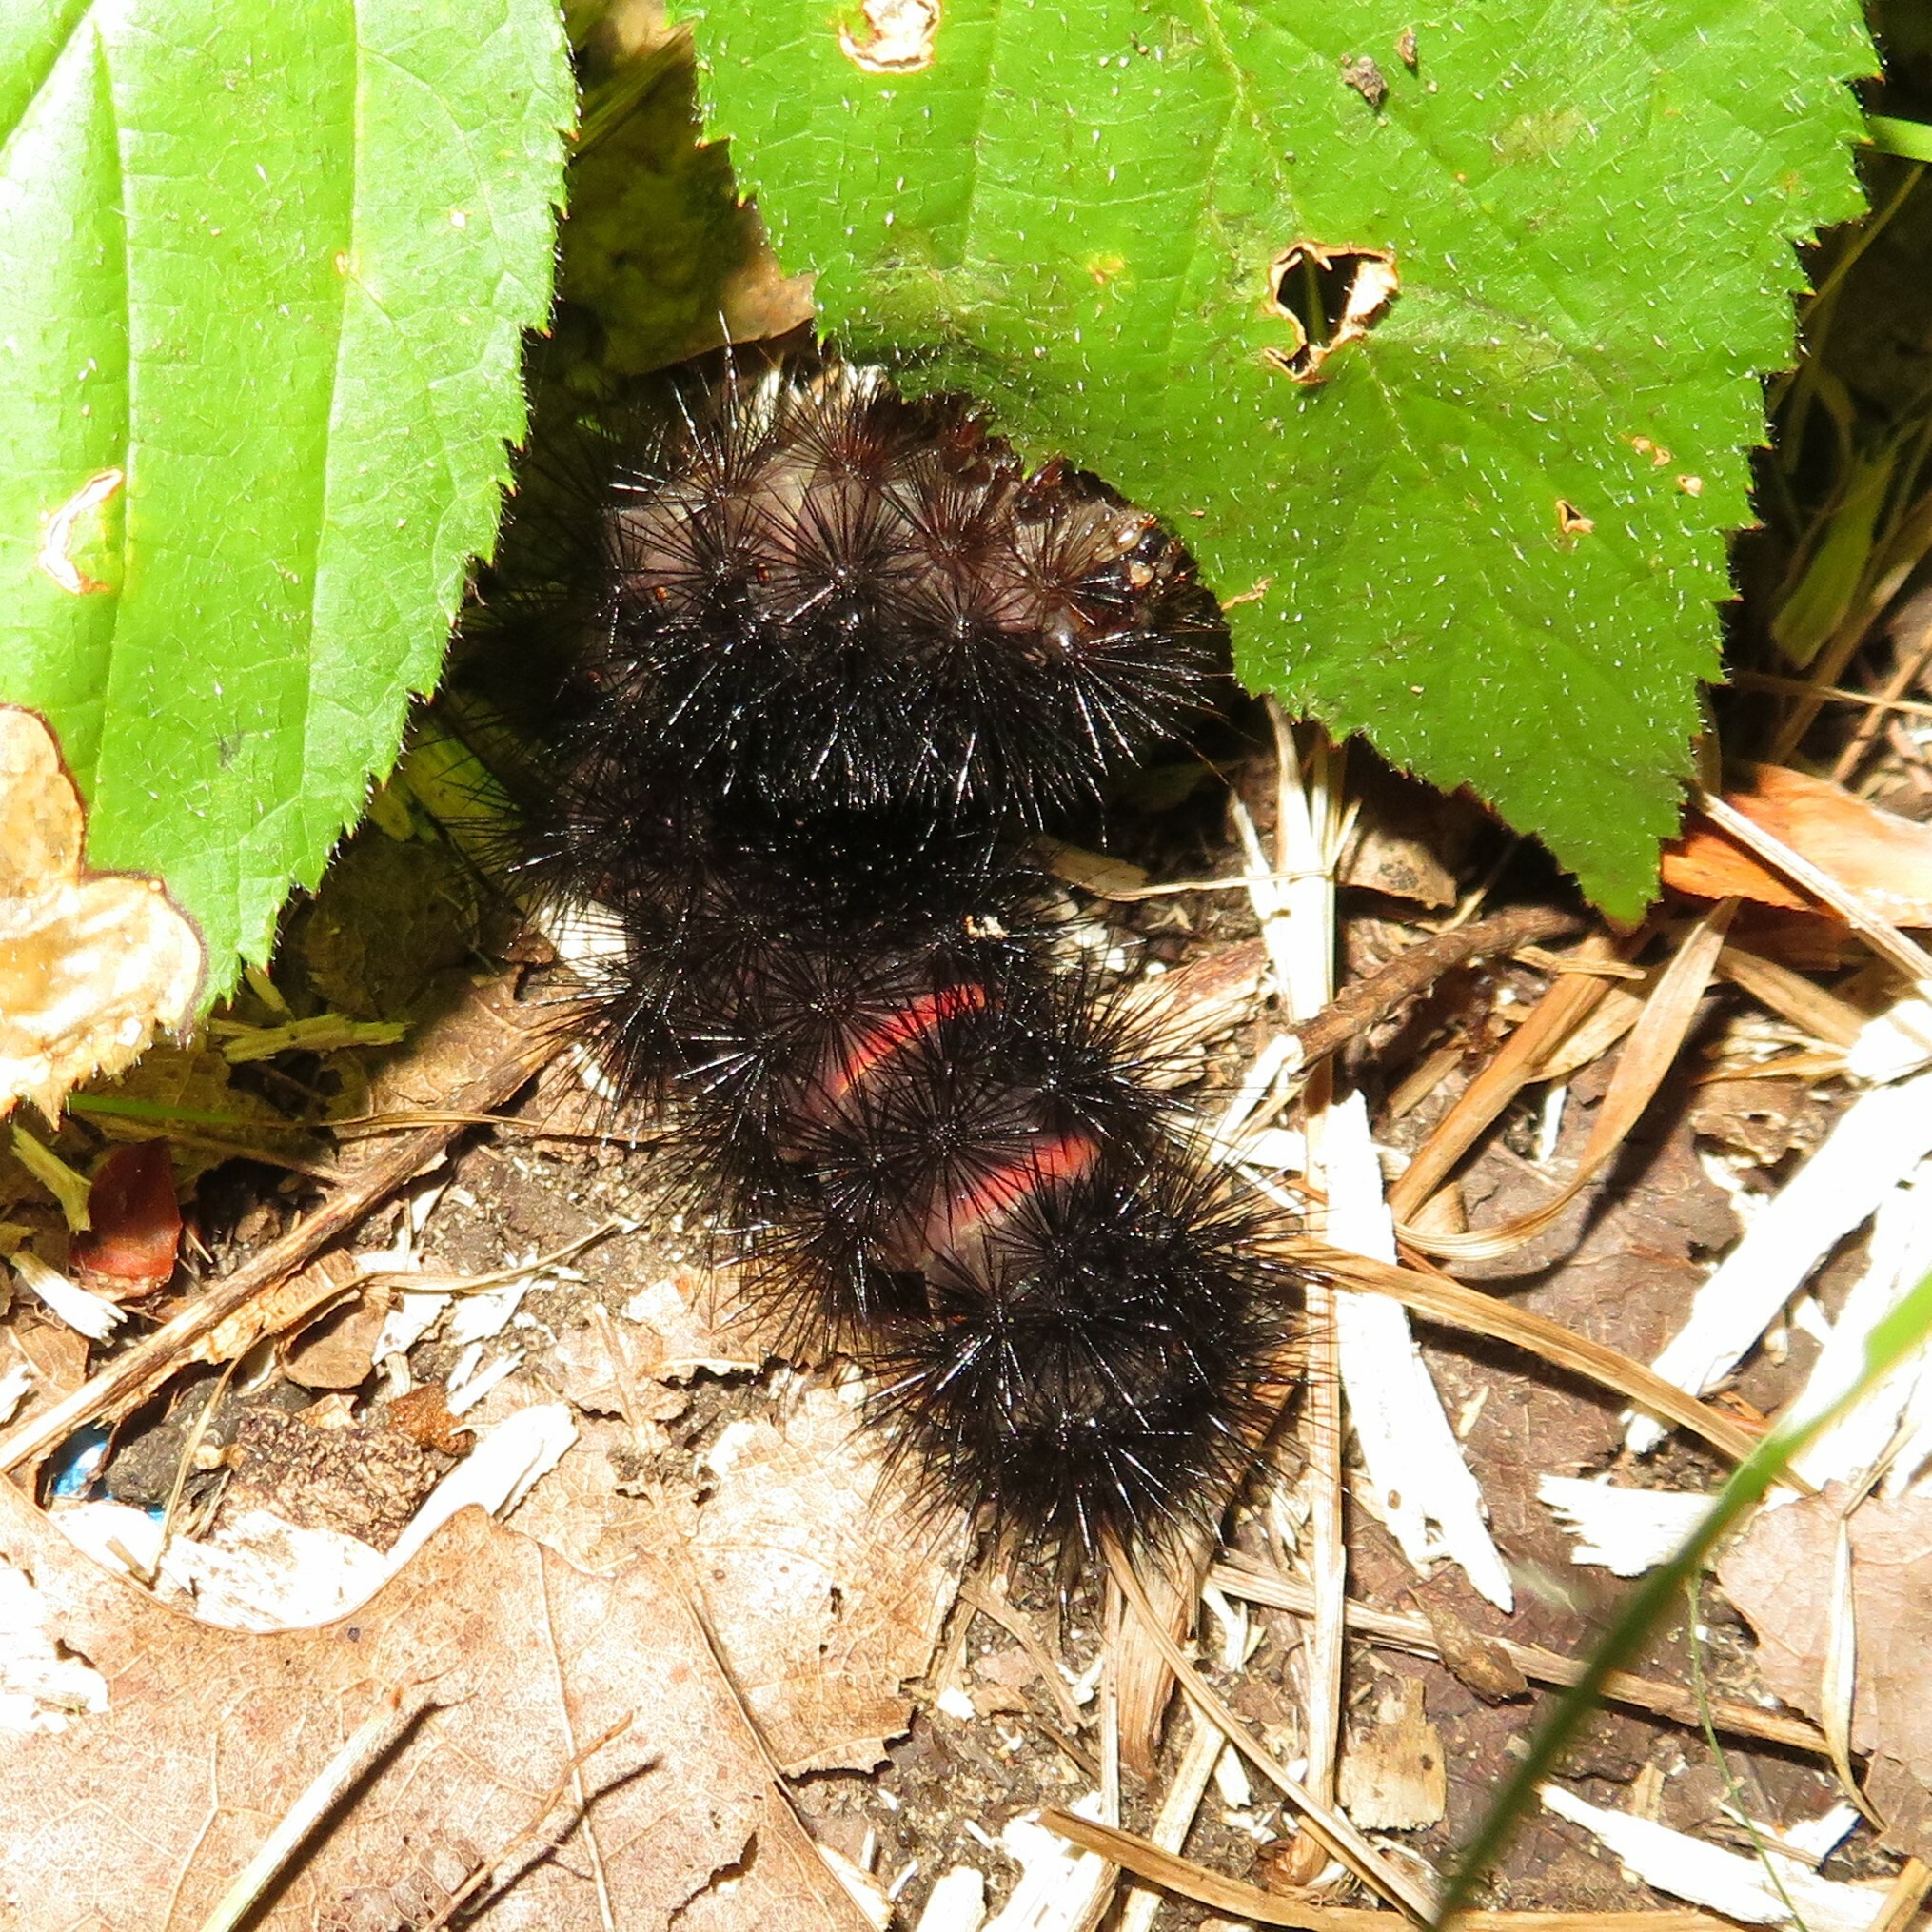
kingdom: Animalia
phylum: Arthropoda
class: Insecta
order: Lepidoptera
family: Erebidae
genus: Hypercompe
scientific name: Hypercompe scribonia
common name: Giant leopard moth
